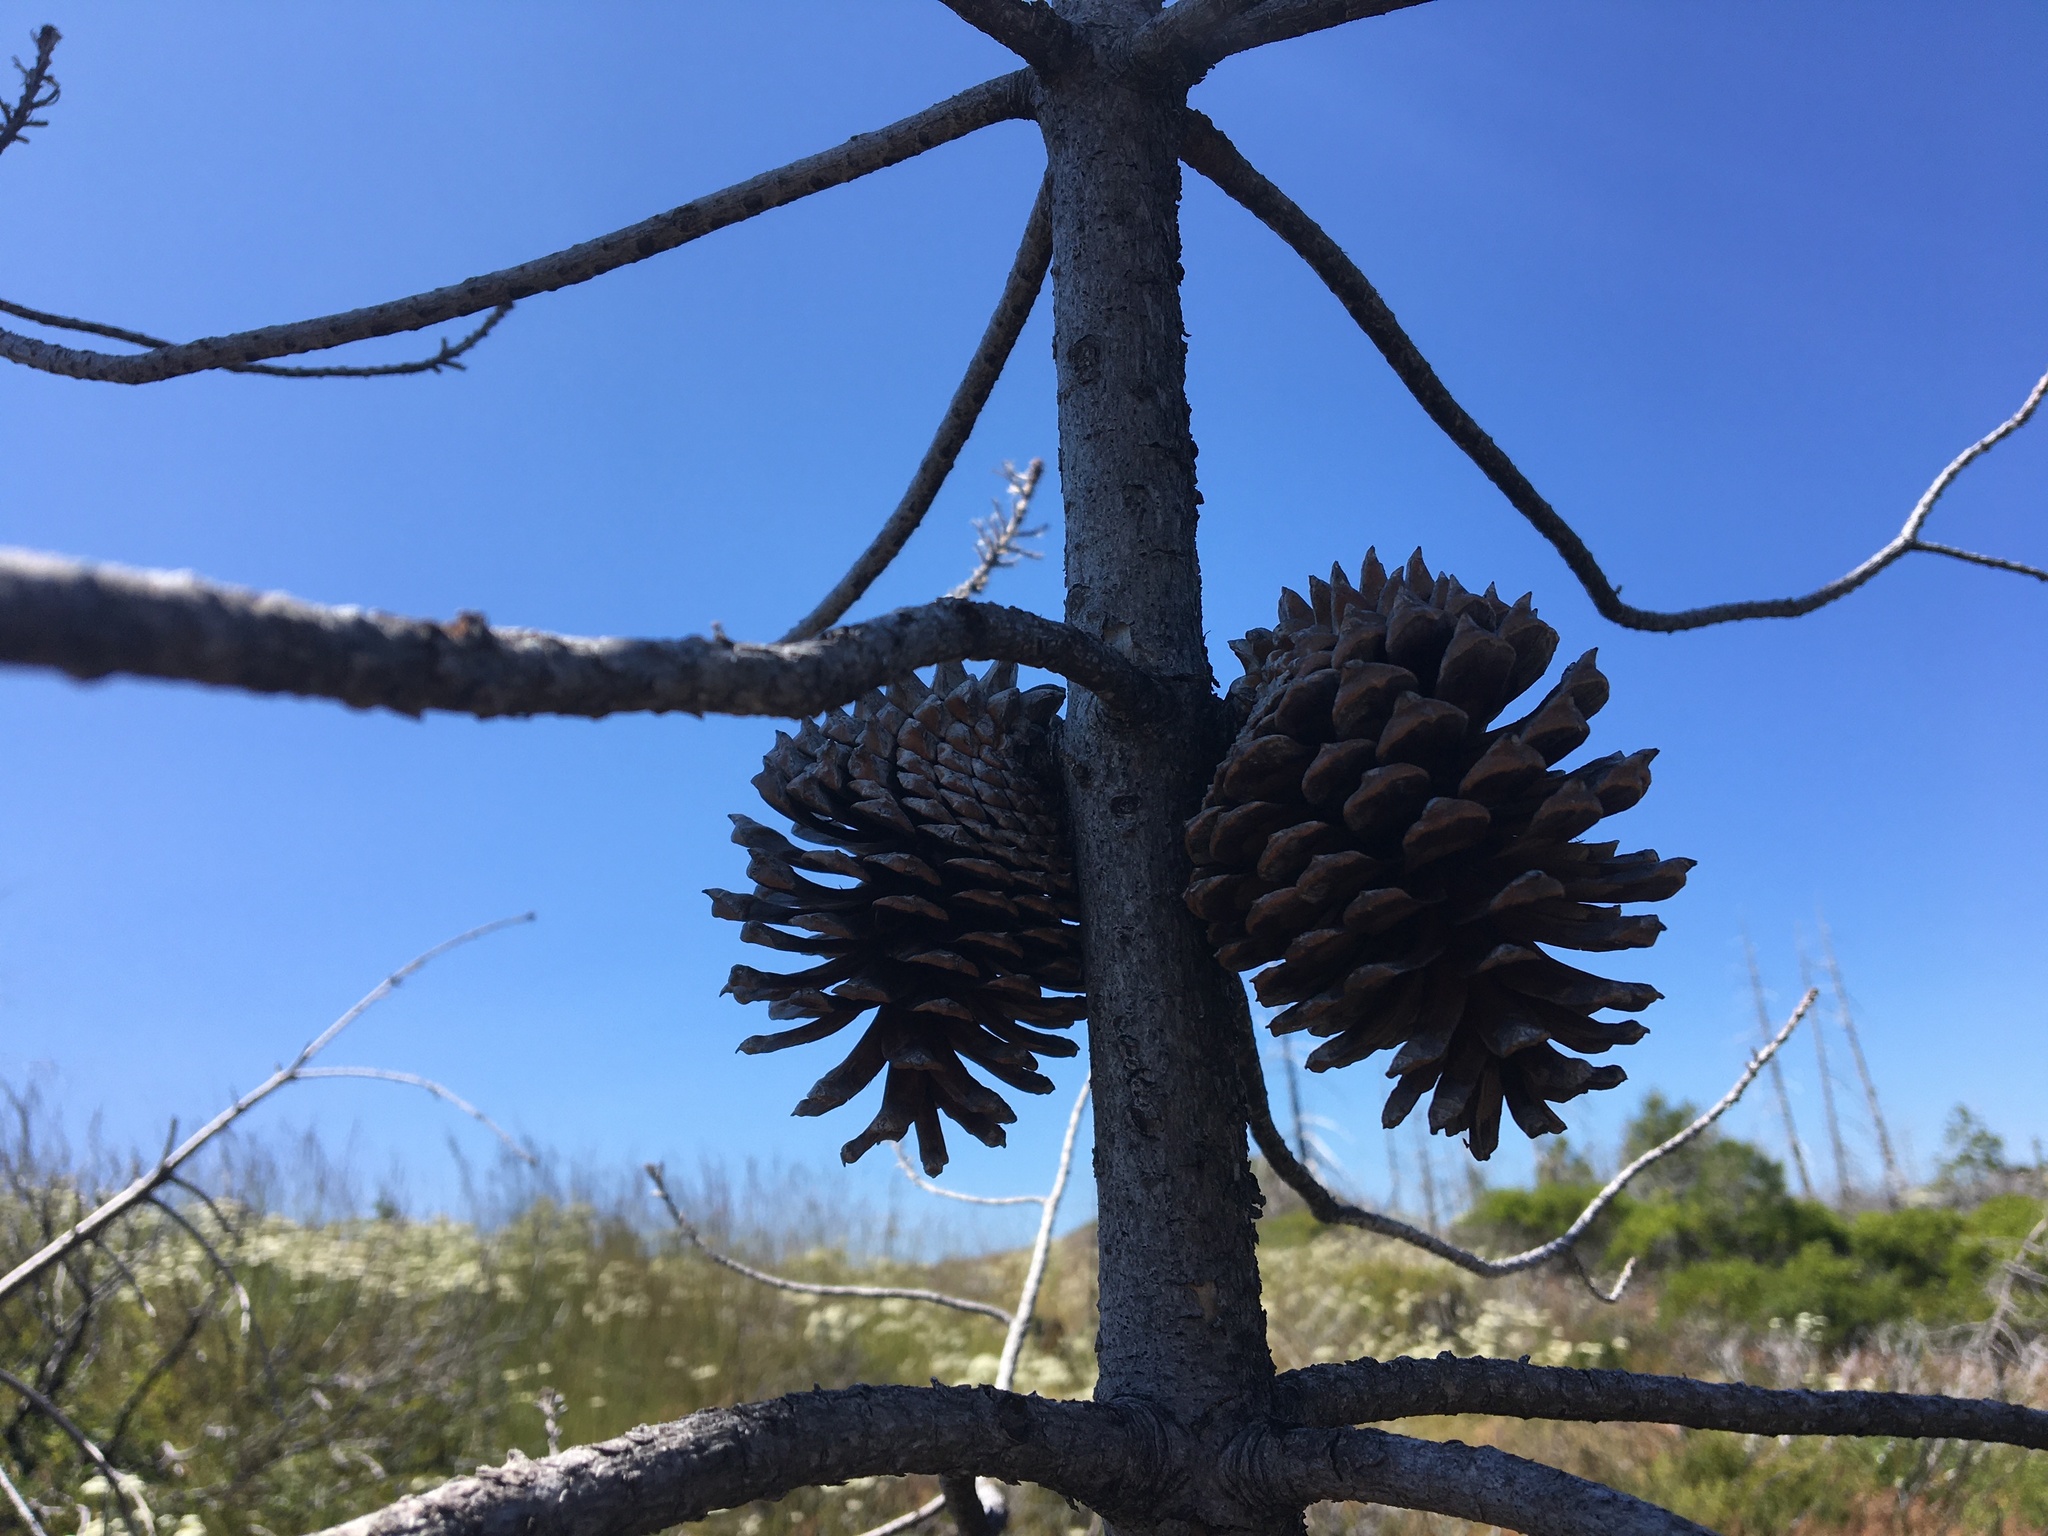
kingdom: Plantae
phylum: Tracheophyta
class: Pinopsida
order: Pinales
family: Pinaceae
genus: Pinus
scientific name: Pinus attenuata
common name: Knobcone pine
